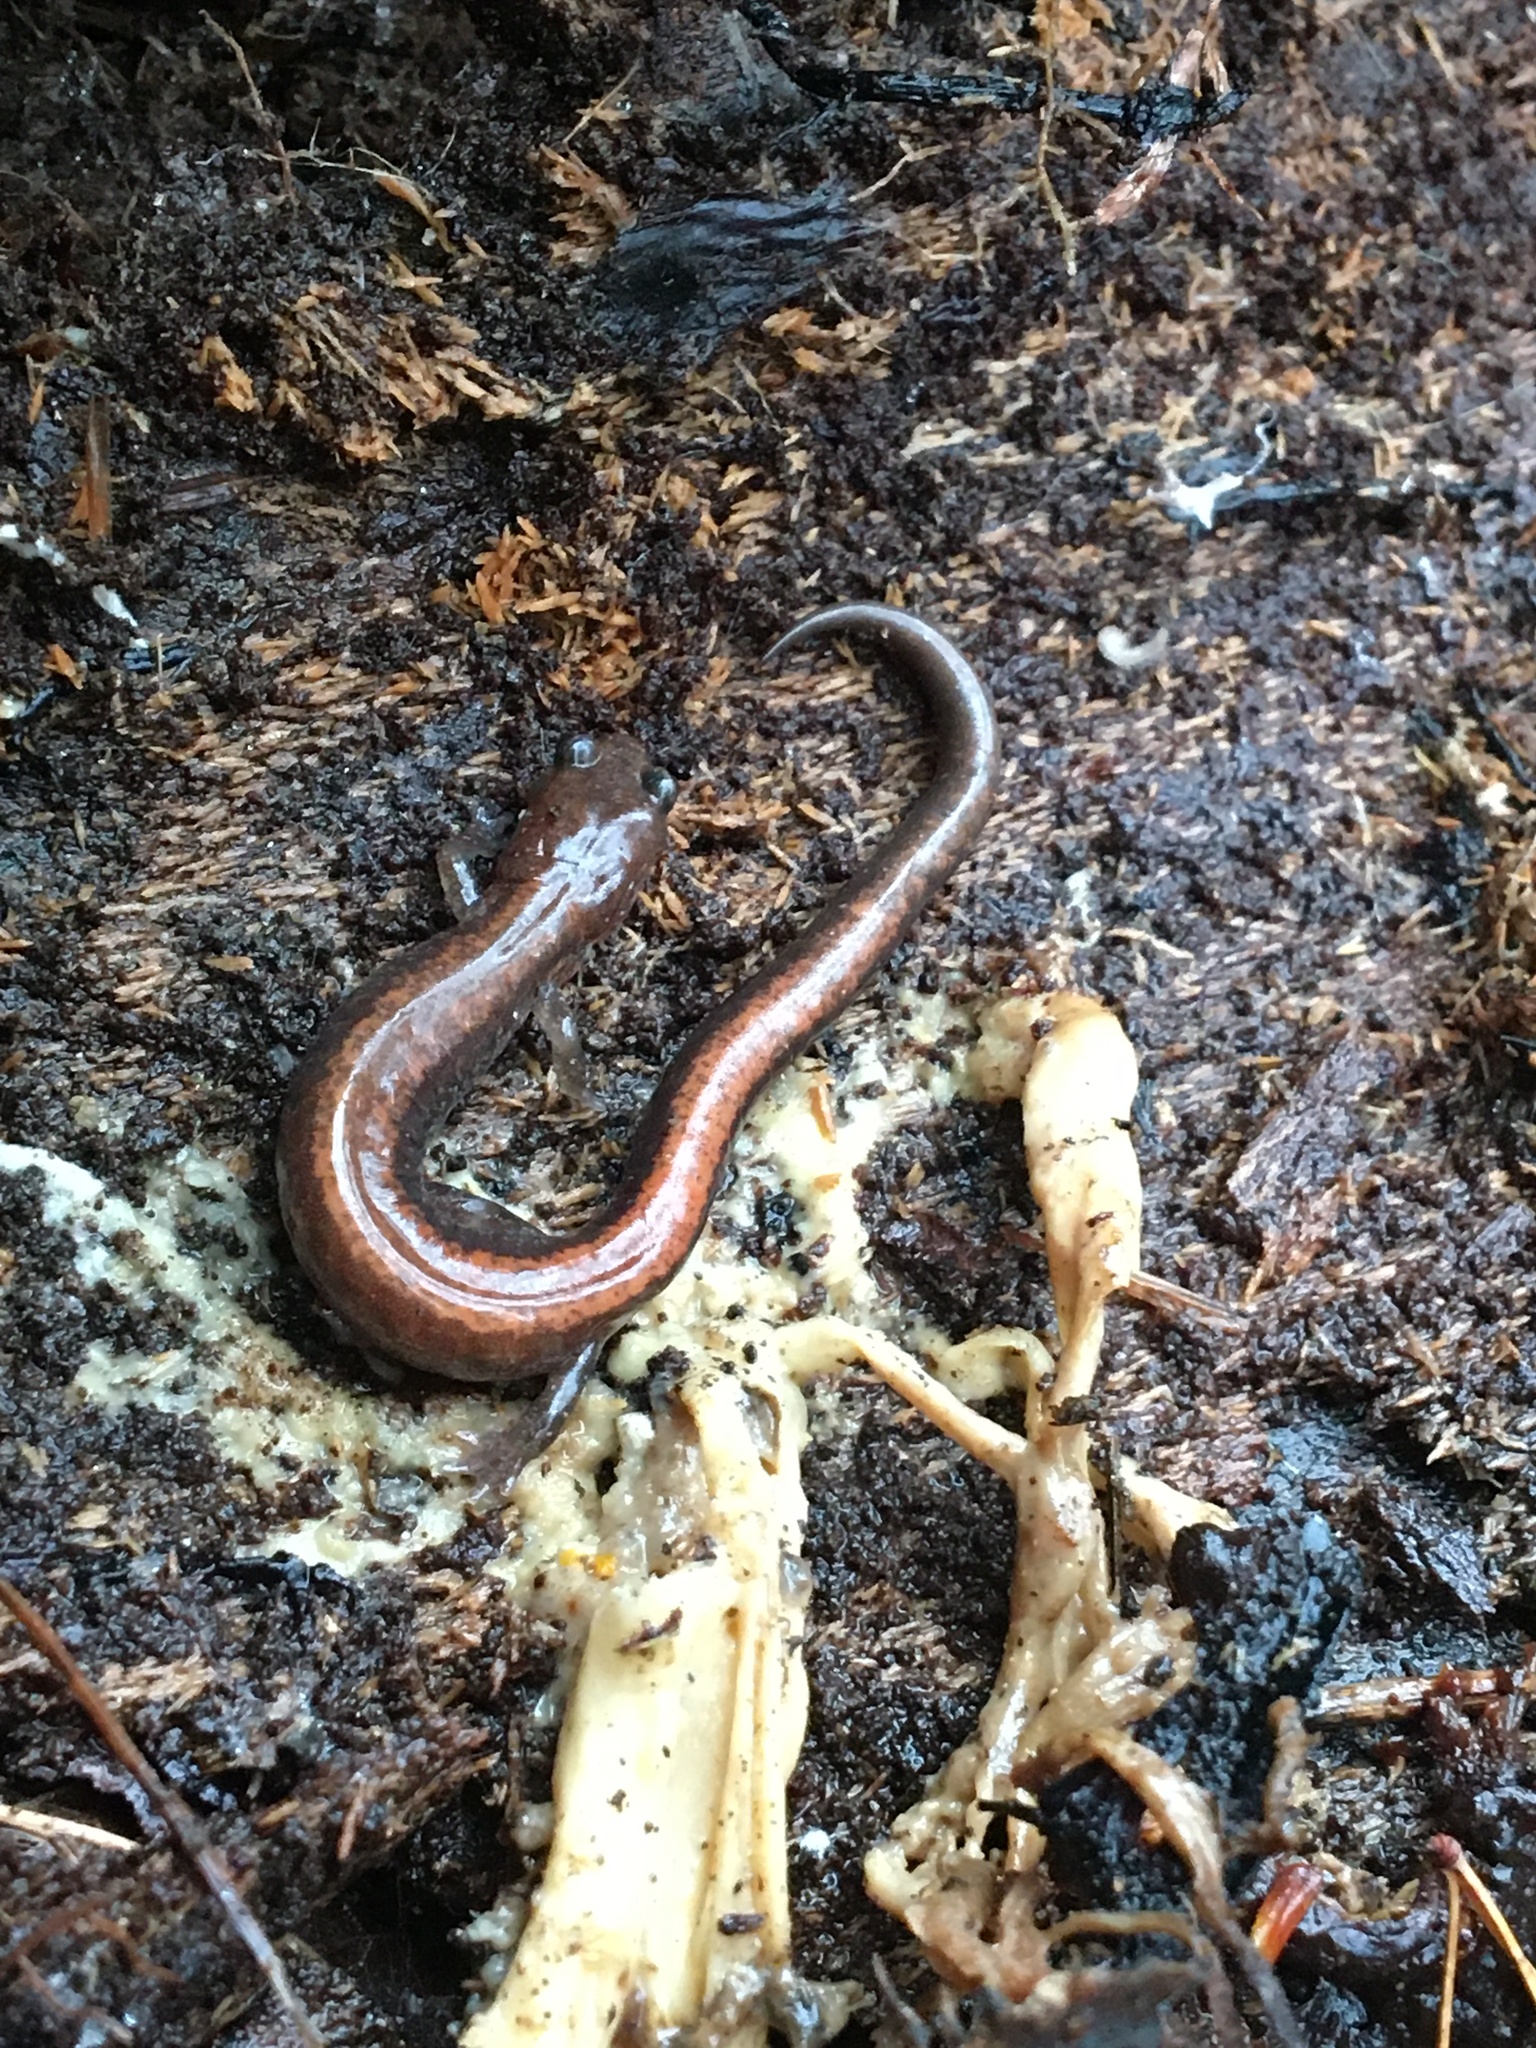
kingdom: Animalia
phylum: Chordata
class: Amphibia
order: Caudata
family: Plethodontidae
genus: Plethodon
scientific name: Plethodon cinereus
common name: Redback salamander
